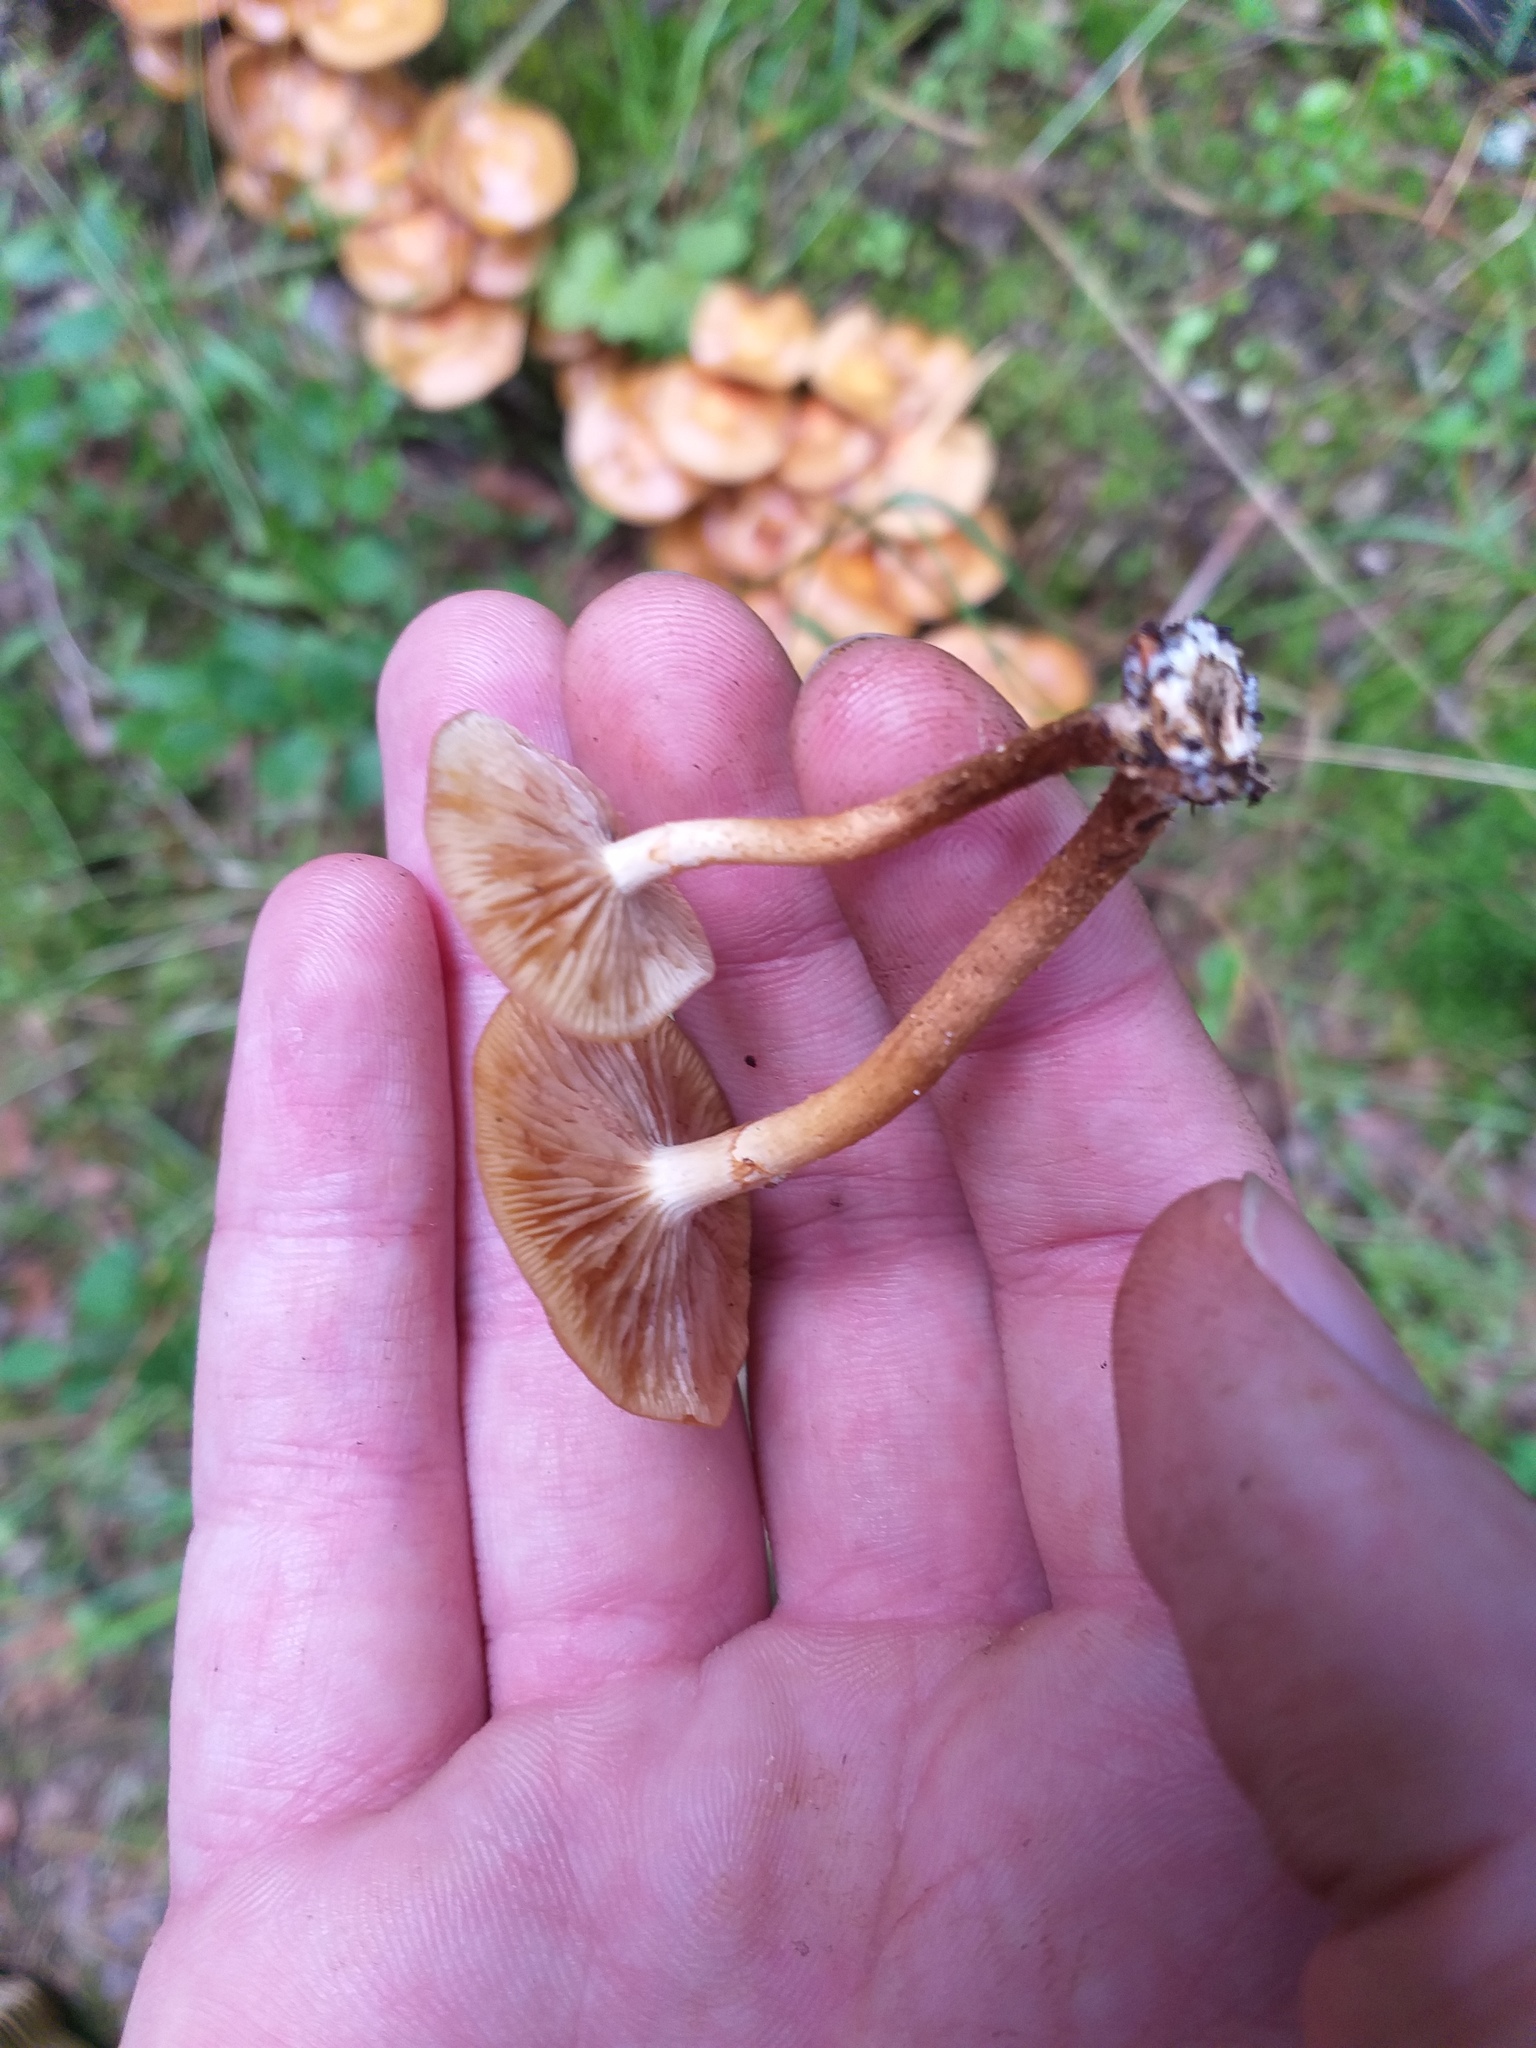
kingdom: Fungi
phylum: Basidiomycota
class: Agaricomycetes
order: Agaricales
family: Strophariaceae
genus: Kuehneromyces
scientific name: Kuehneromyces mutabilis
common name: Sheathed woodtuft
